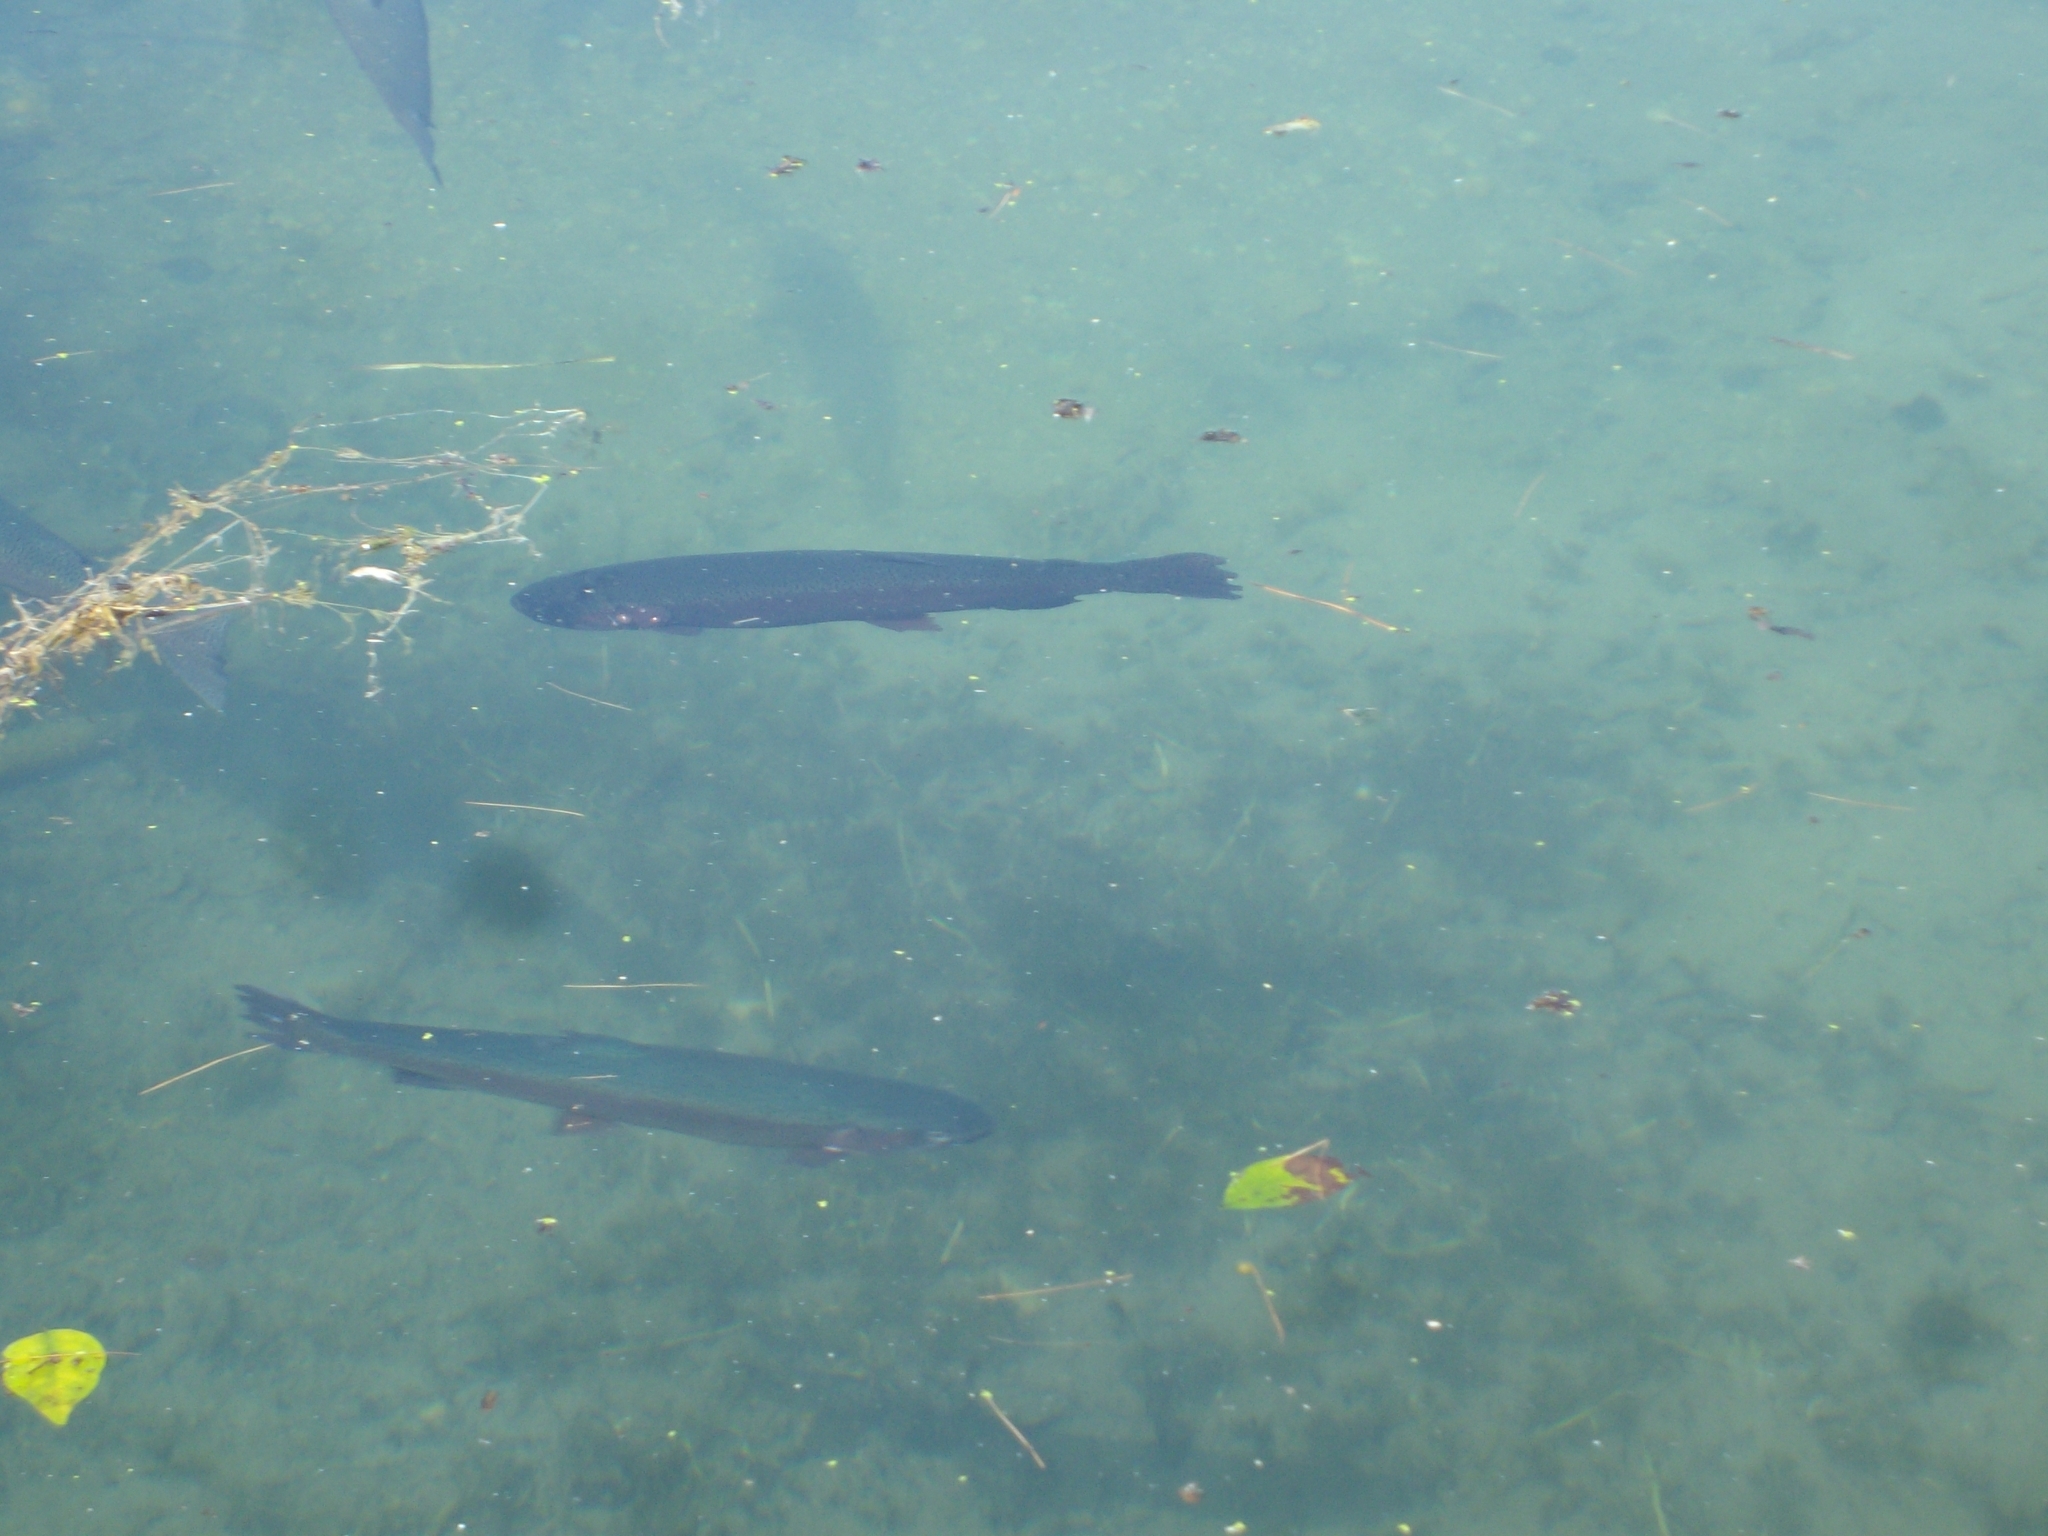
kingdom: Animalia
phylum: Chordata
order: Salmoniformes
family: Salmonidae
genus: Oncorhynchus
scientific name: Oncorhynchus mykiss
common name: Rainbow trout
